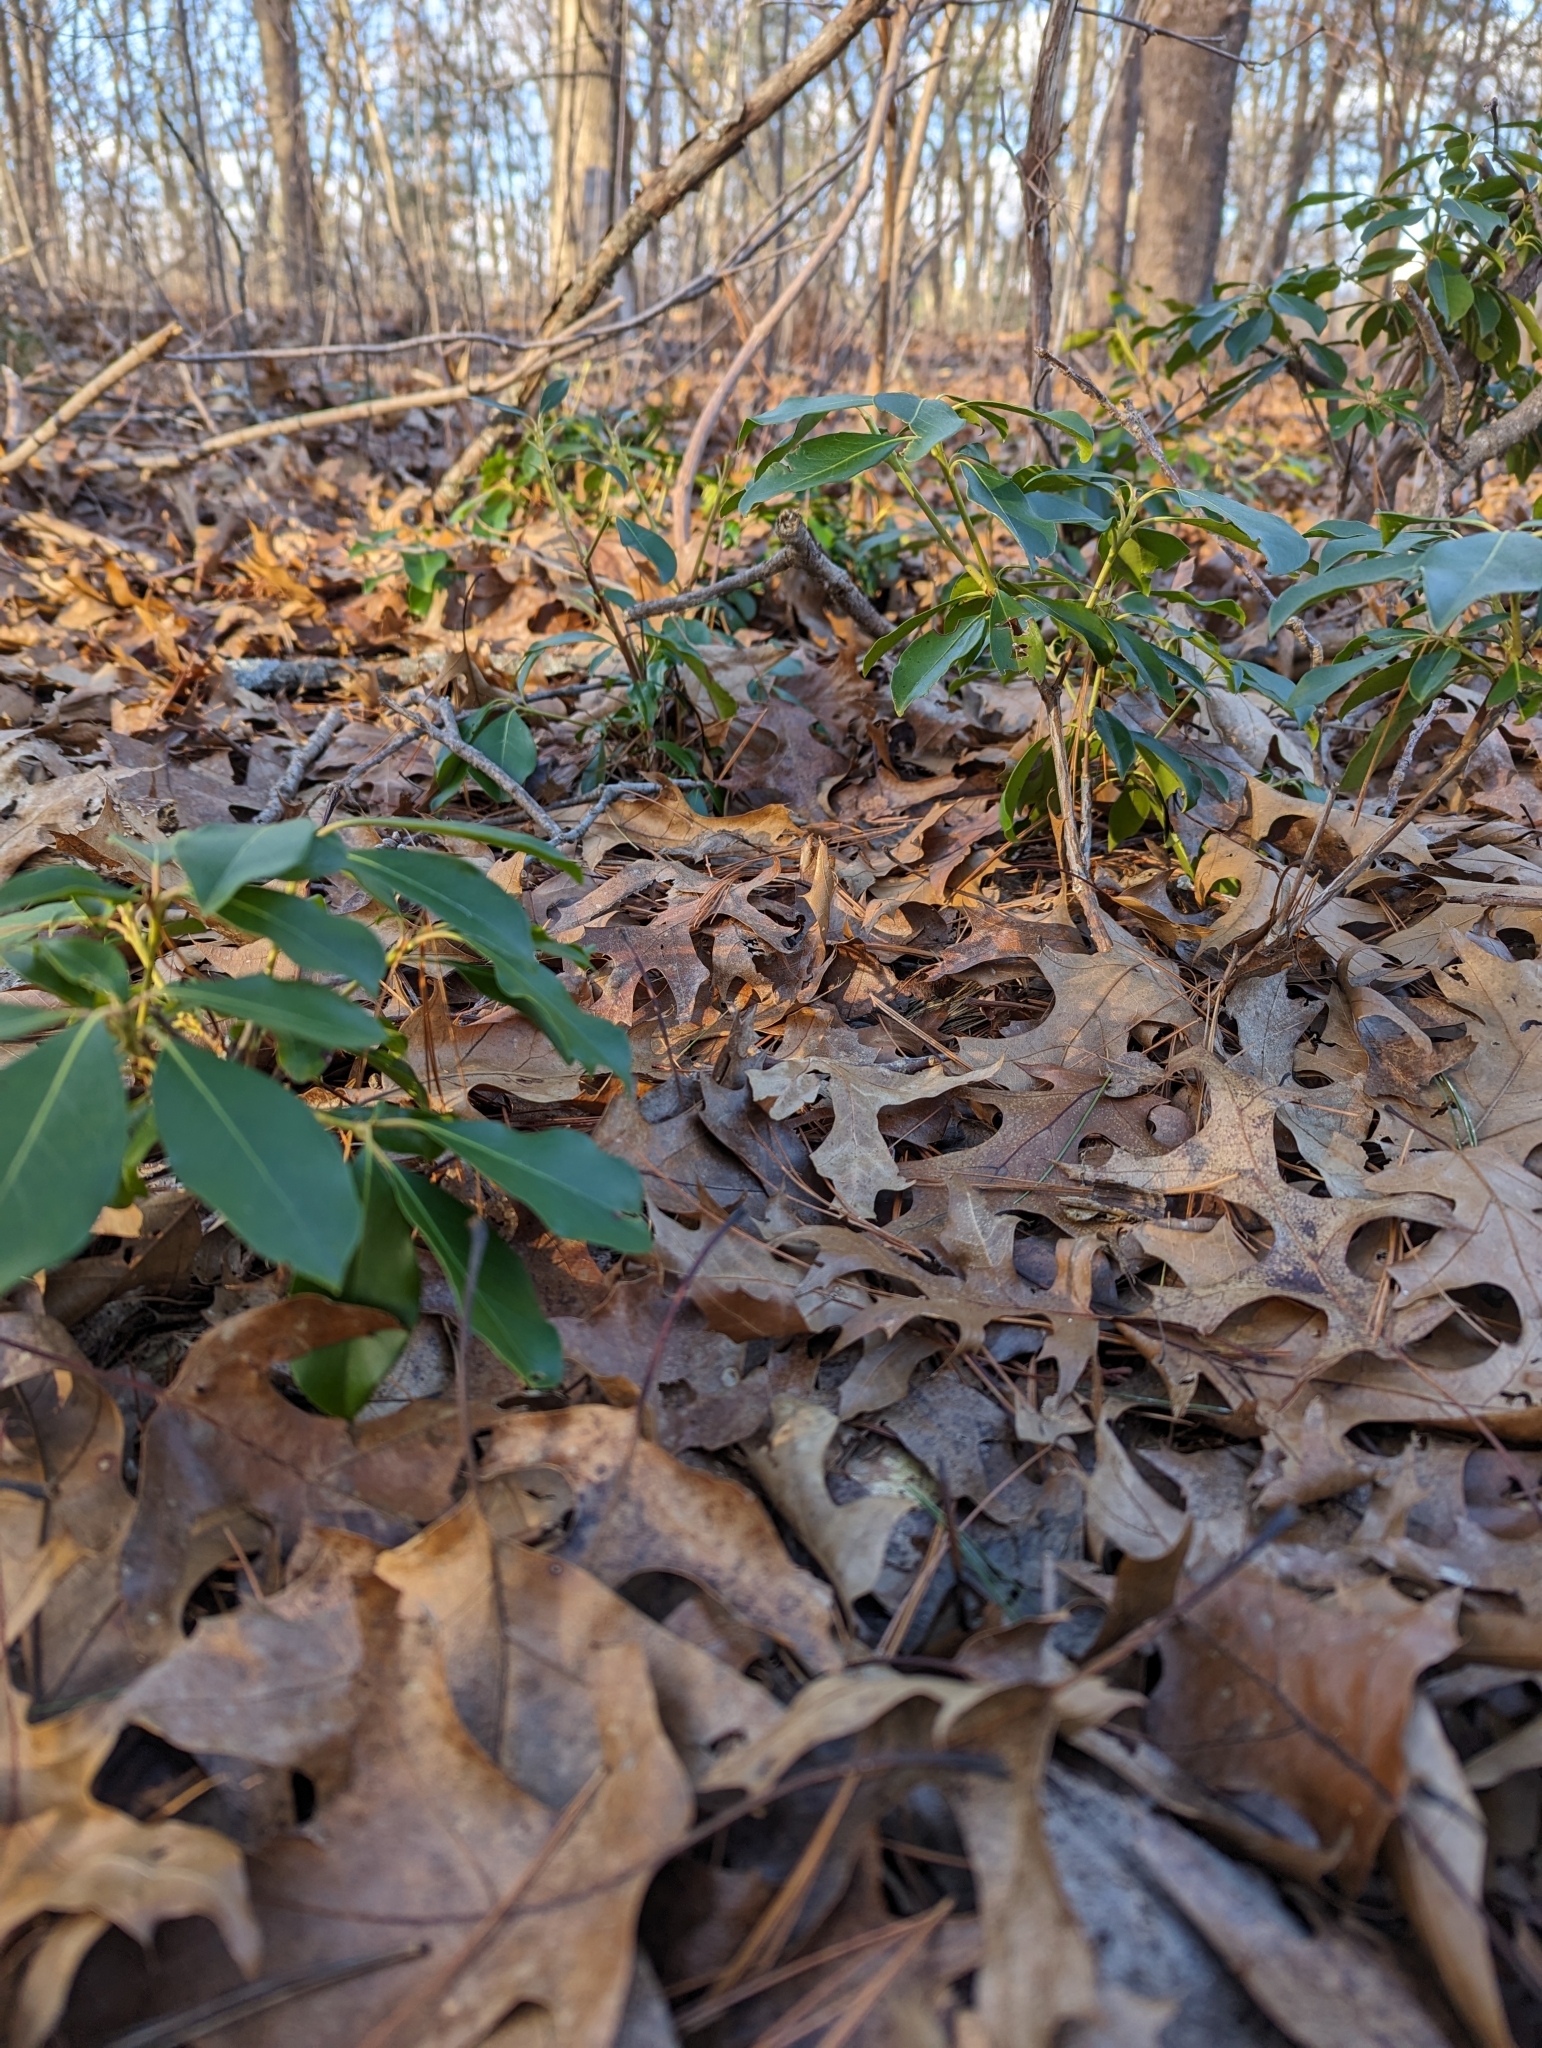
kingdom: Plantae
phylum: Tracheophyta
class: Magnoliopsida
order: Ericales
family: Ericaceae
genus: Kalmia
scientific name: Kalmia latifolia
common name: Mountain-laurel
